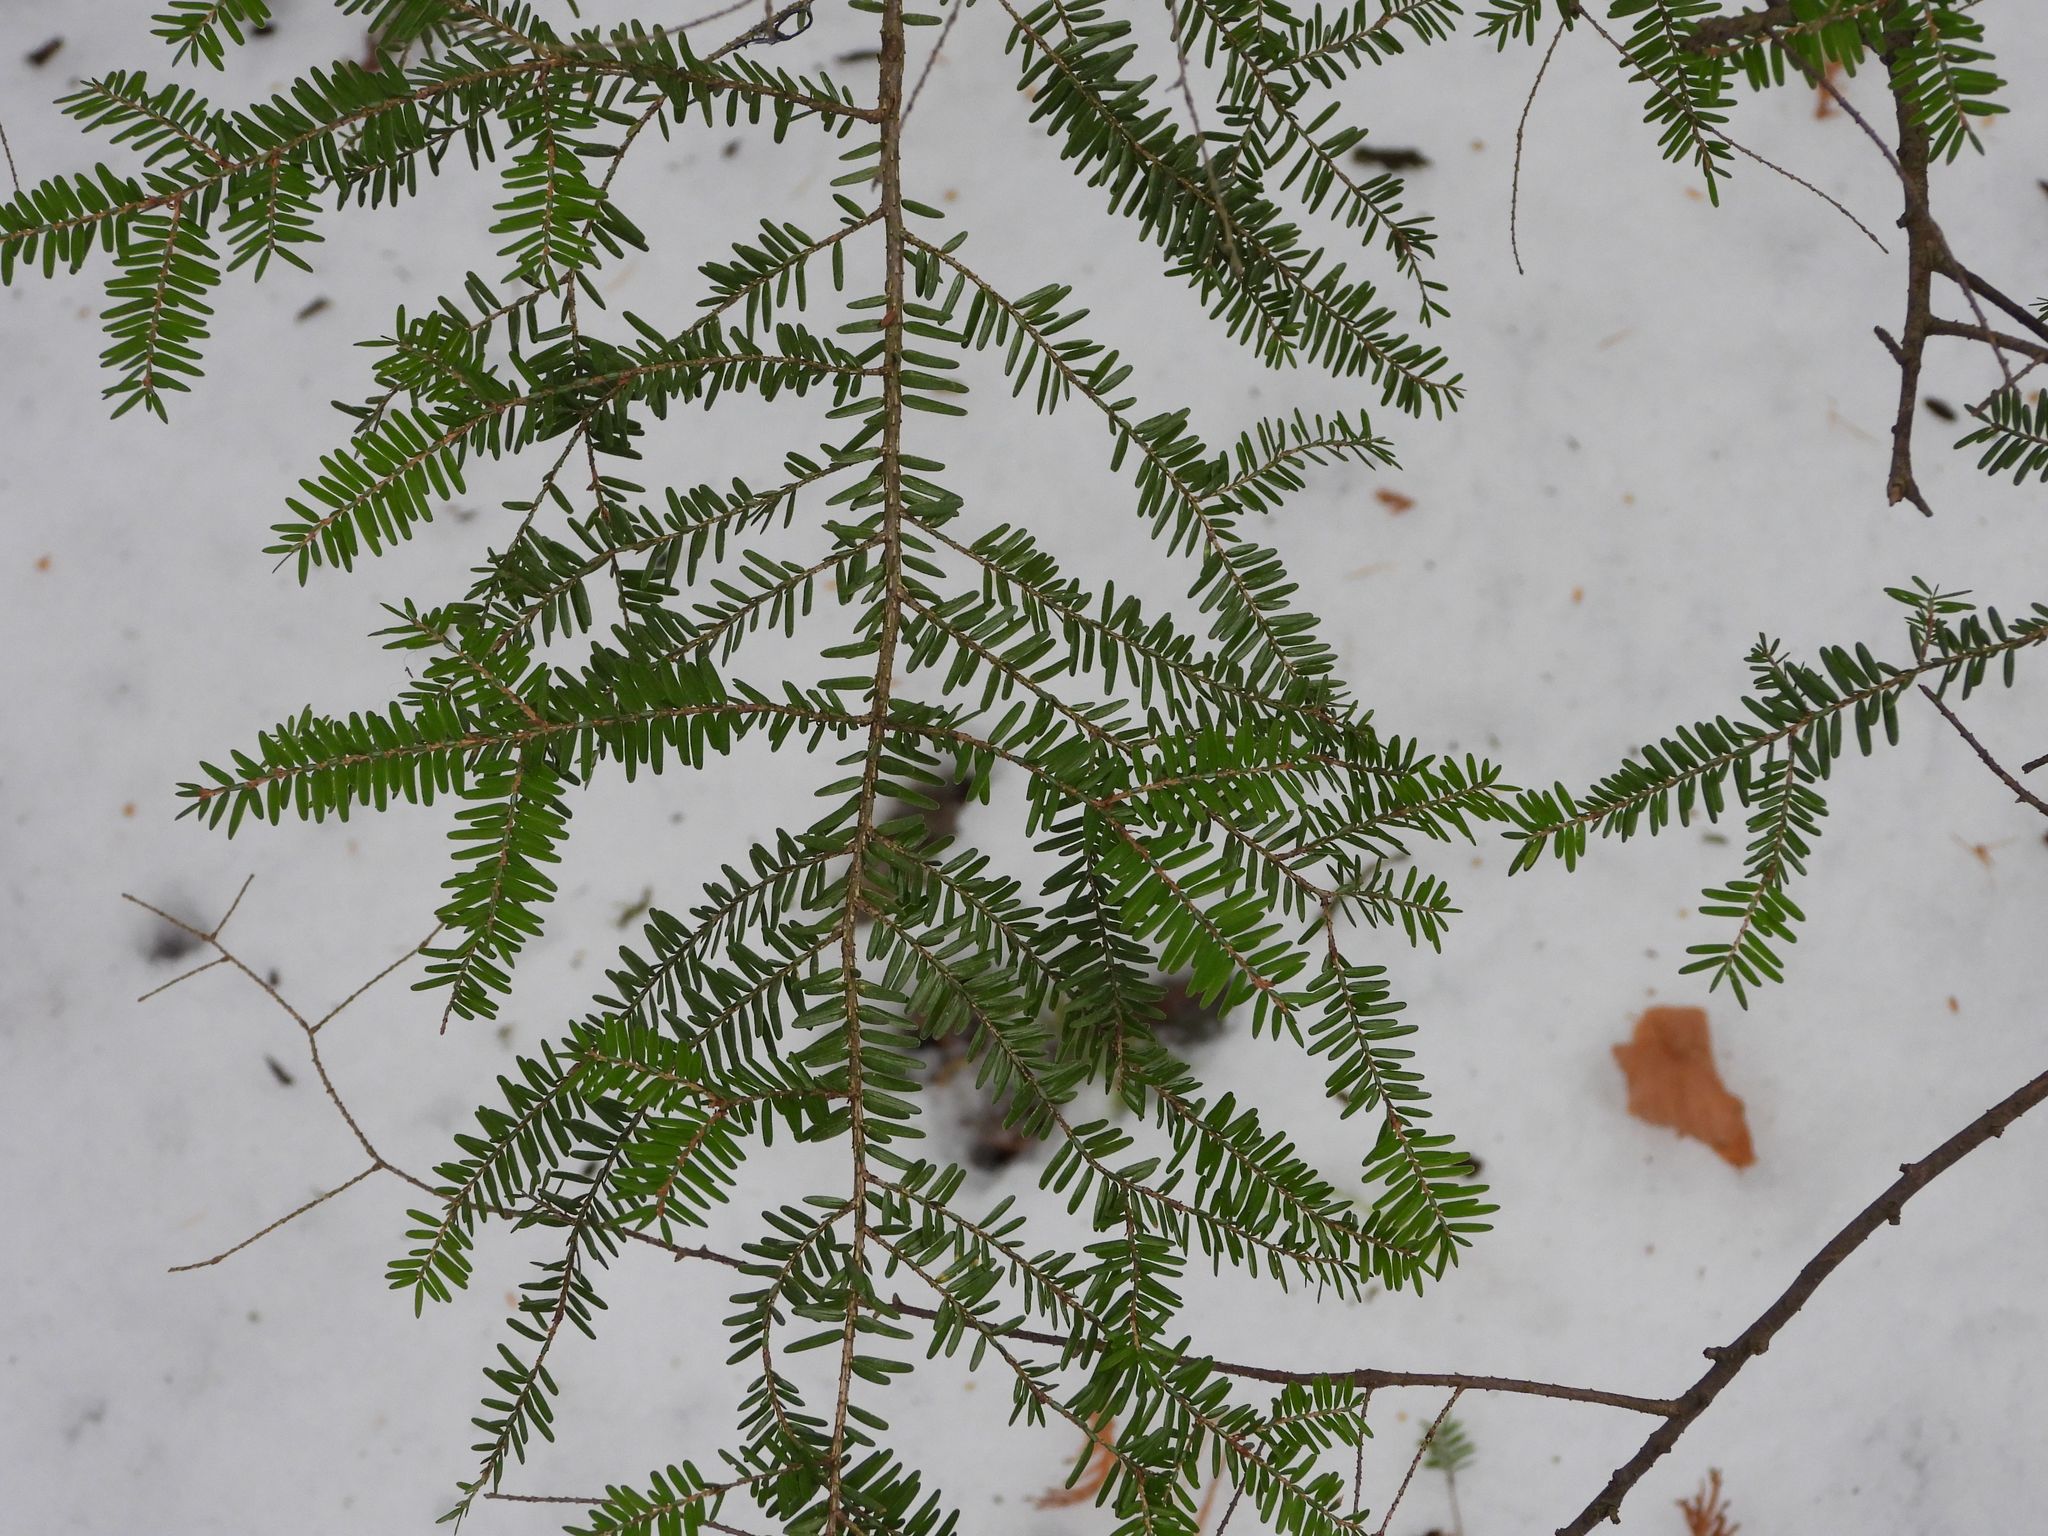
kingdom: Plantae
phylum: Tracheophyta
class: Pinopsida
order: Pinales
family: Pinaceae
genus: Tsuga
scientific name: Tsuga canadensis
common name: Eastern hemlock
